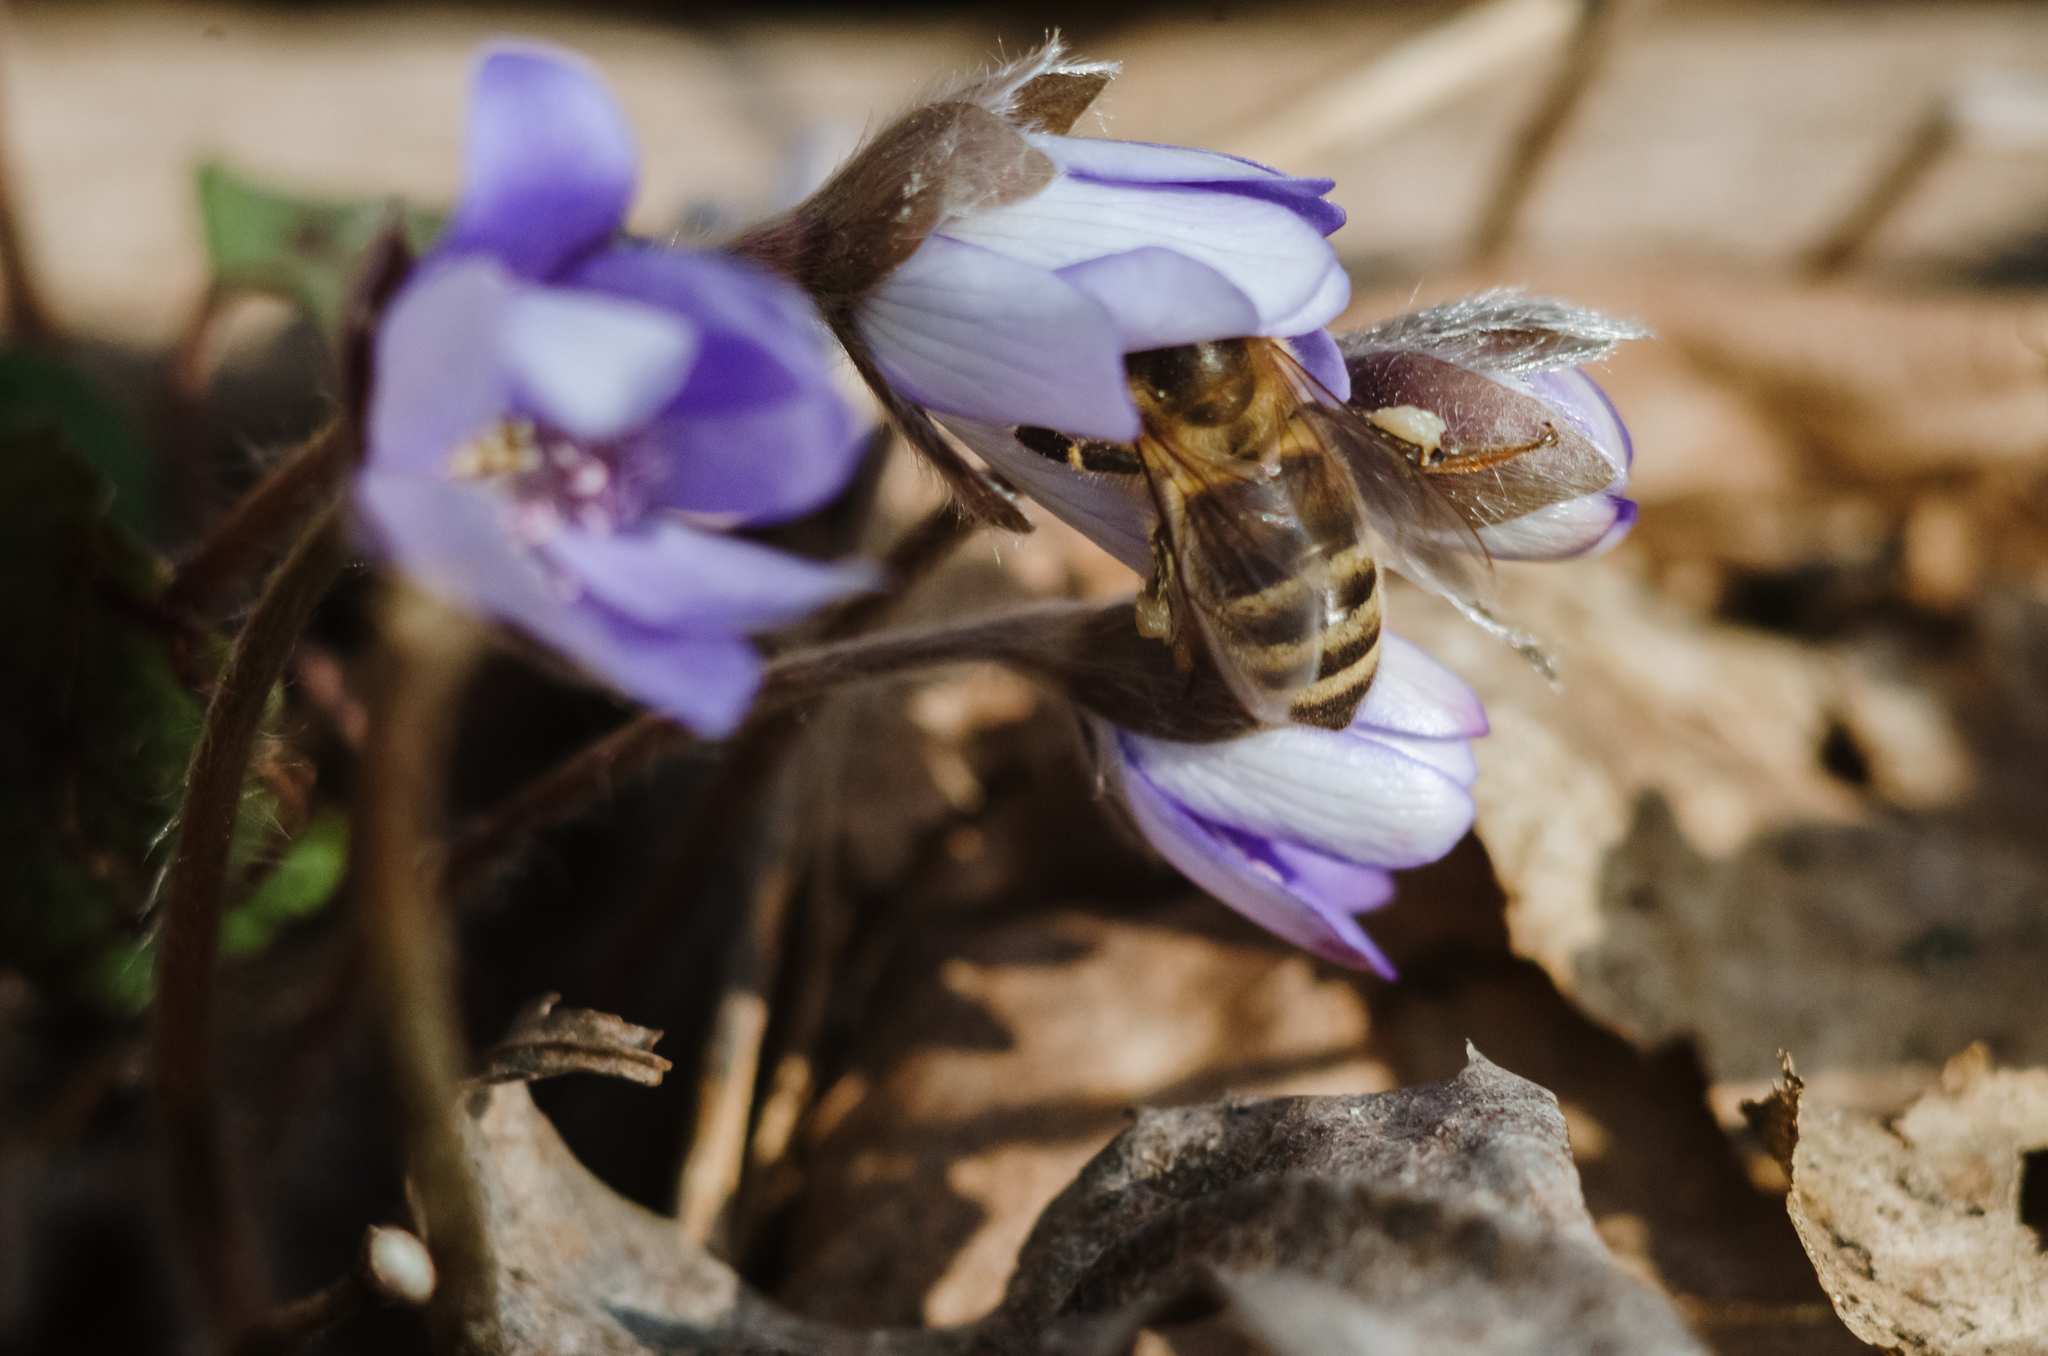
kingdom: Animalia
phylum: Arthropoda
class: Insecta
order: Hymenoptera
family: Apidae
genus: Apis
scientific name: Apis mellifera
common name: Honey bee
